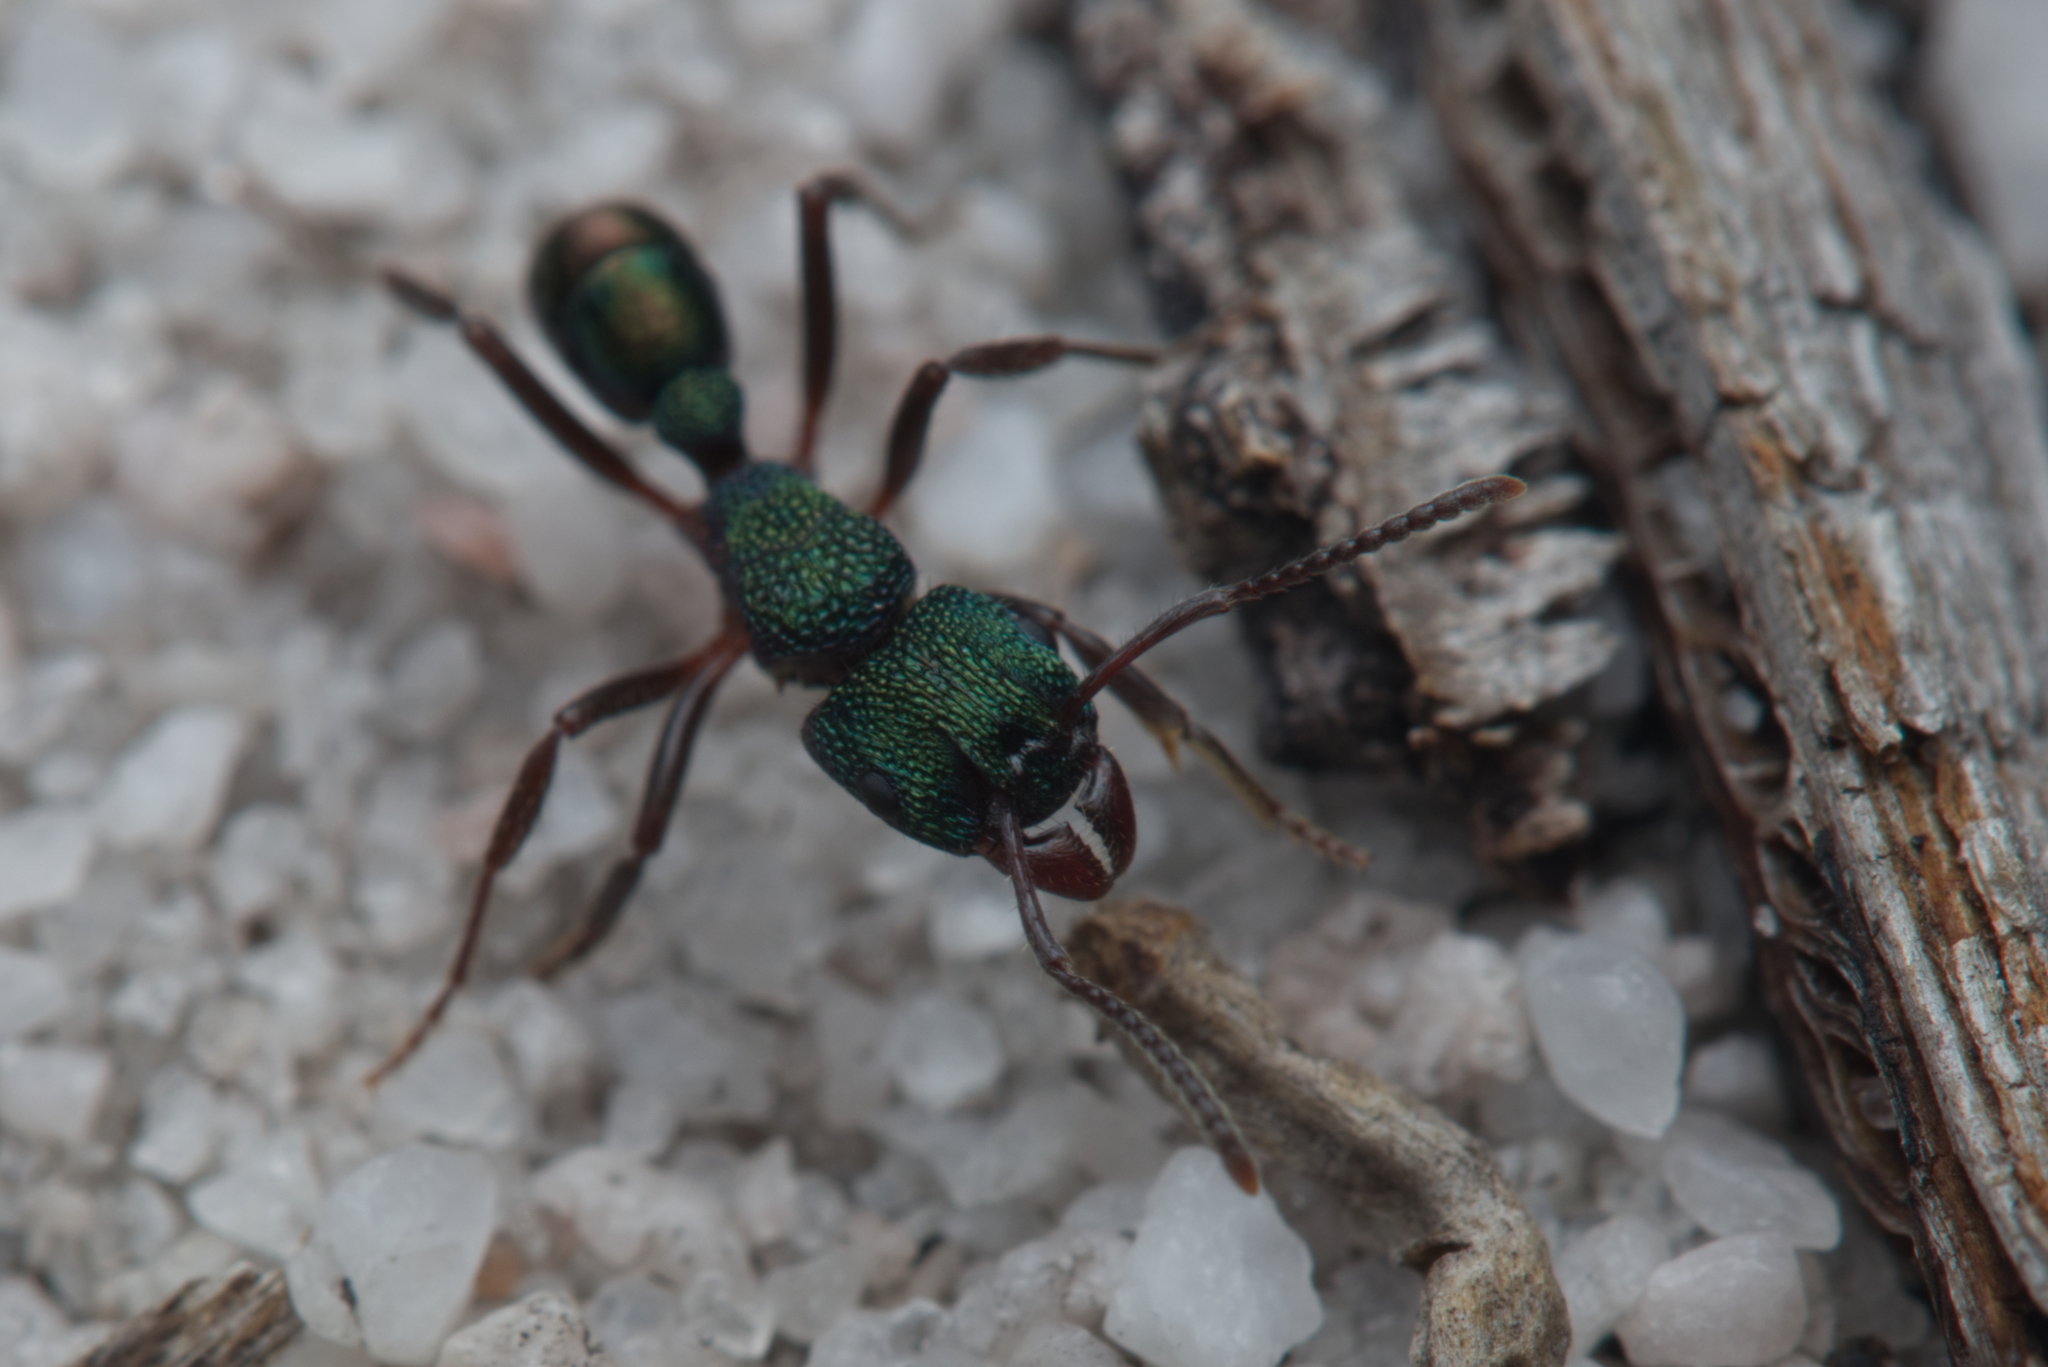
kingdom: Animalia
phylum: Arthropoda
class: Insecta
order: Hymenoptera
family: Formicidae
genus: Rhytidoponera
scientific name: Rhytidoponera metallica
